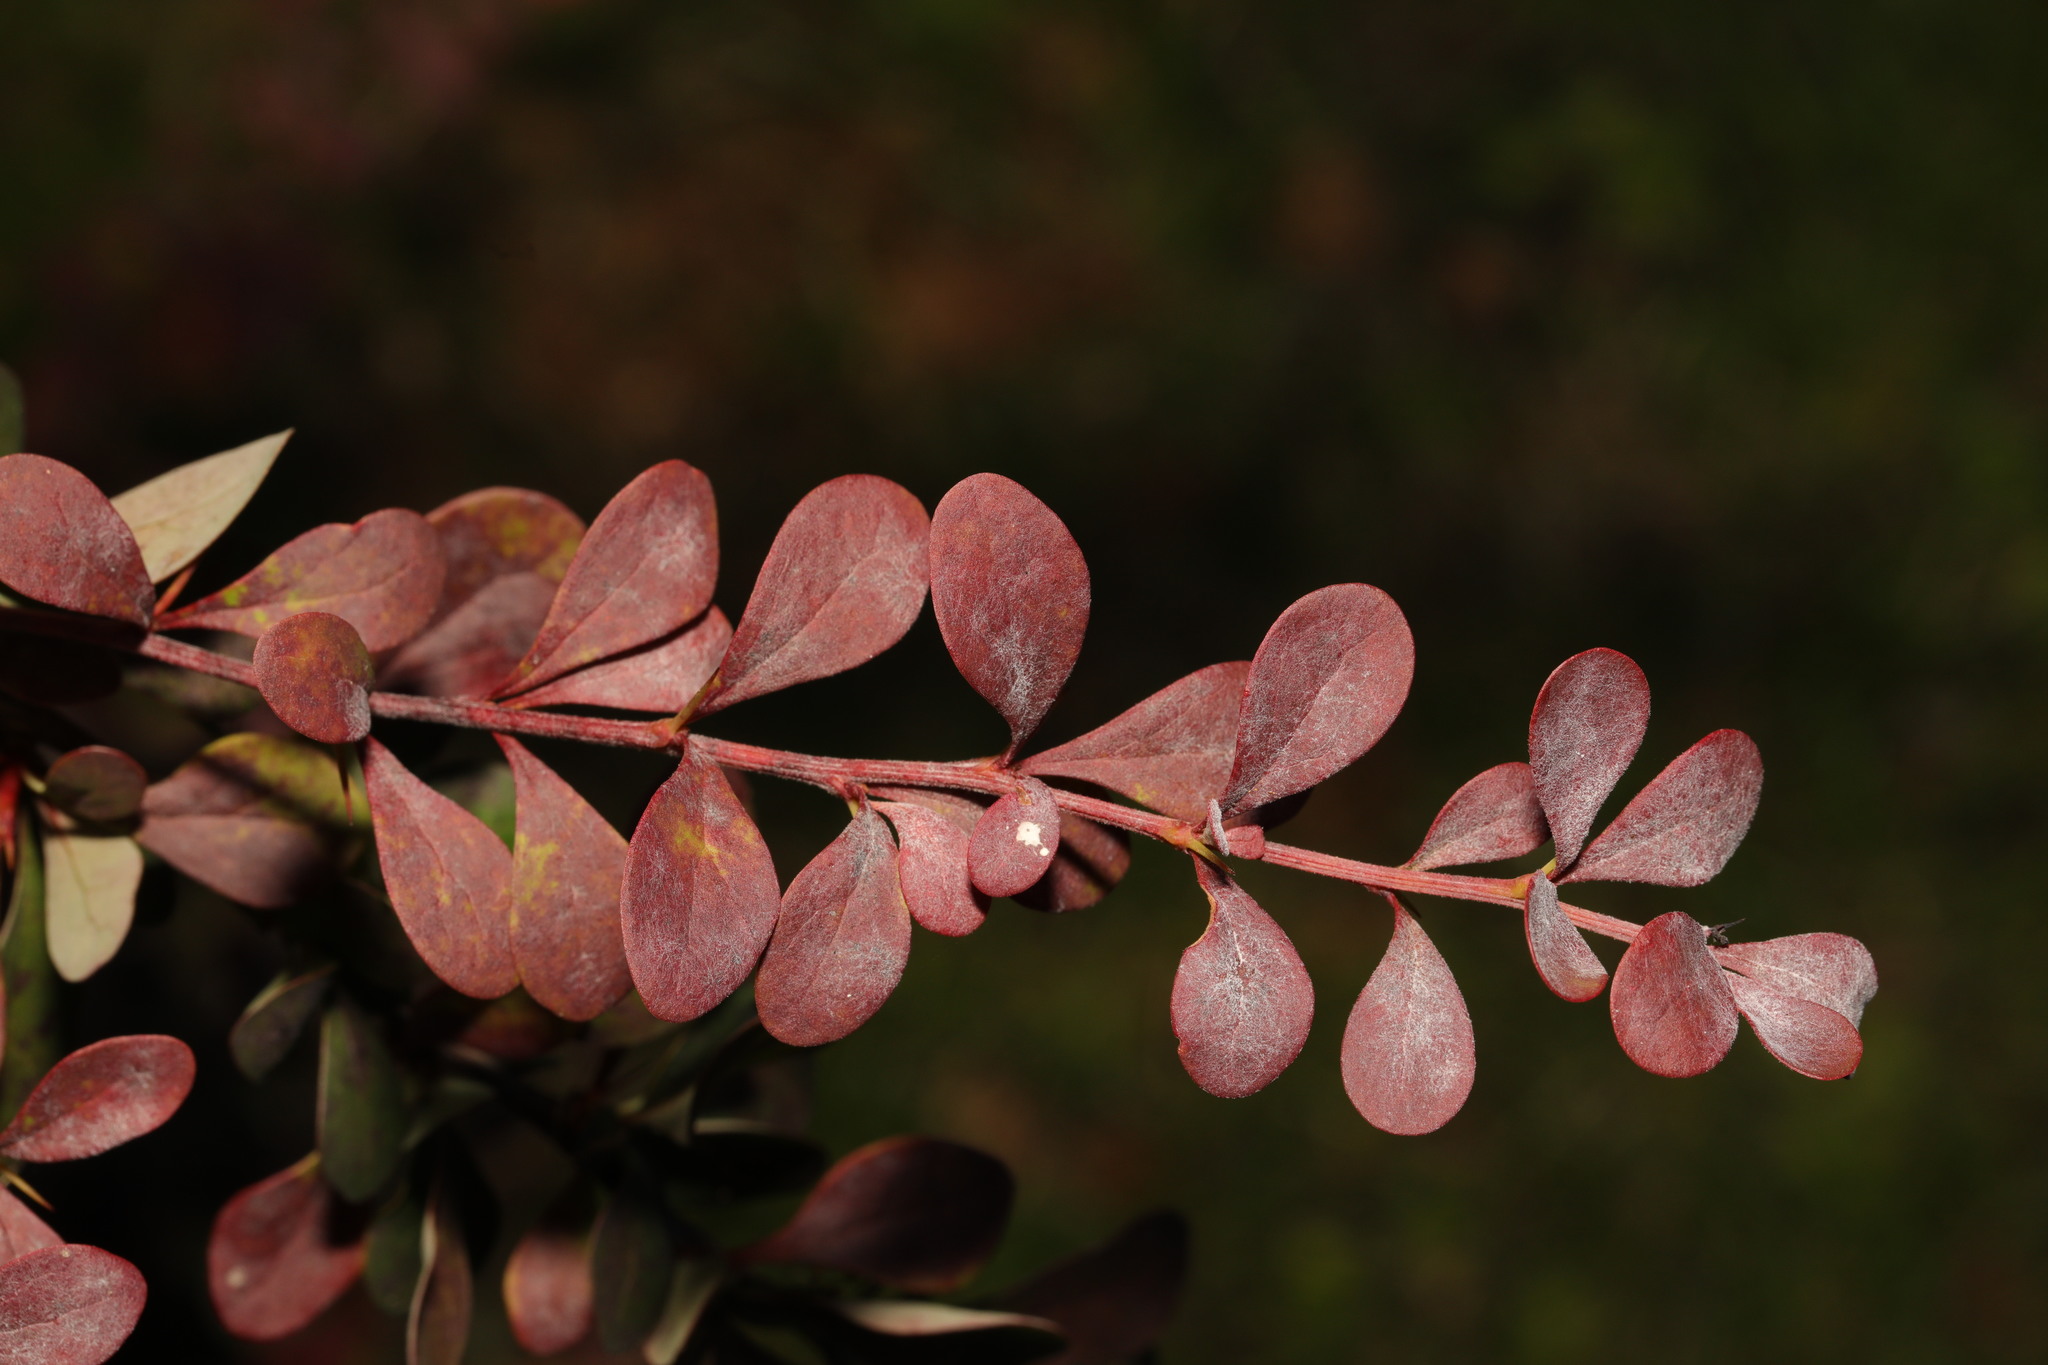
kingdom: Plantae
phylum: Tracheophyta
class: Magnoliopsida
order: Ranunculales
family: Berberidaceae
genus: Berberis
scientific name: Berberis thunbergii
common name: Japanese barberry
